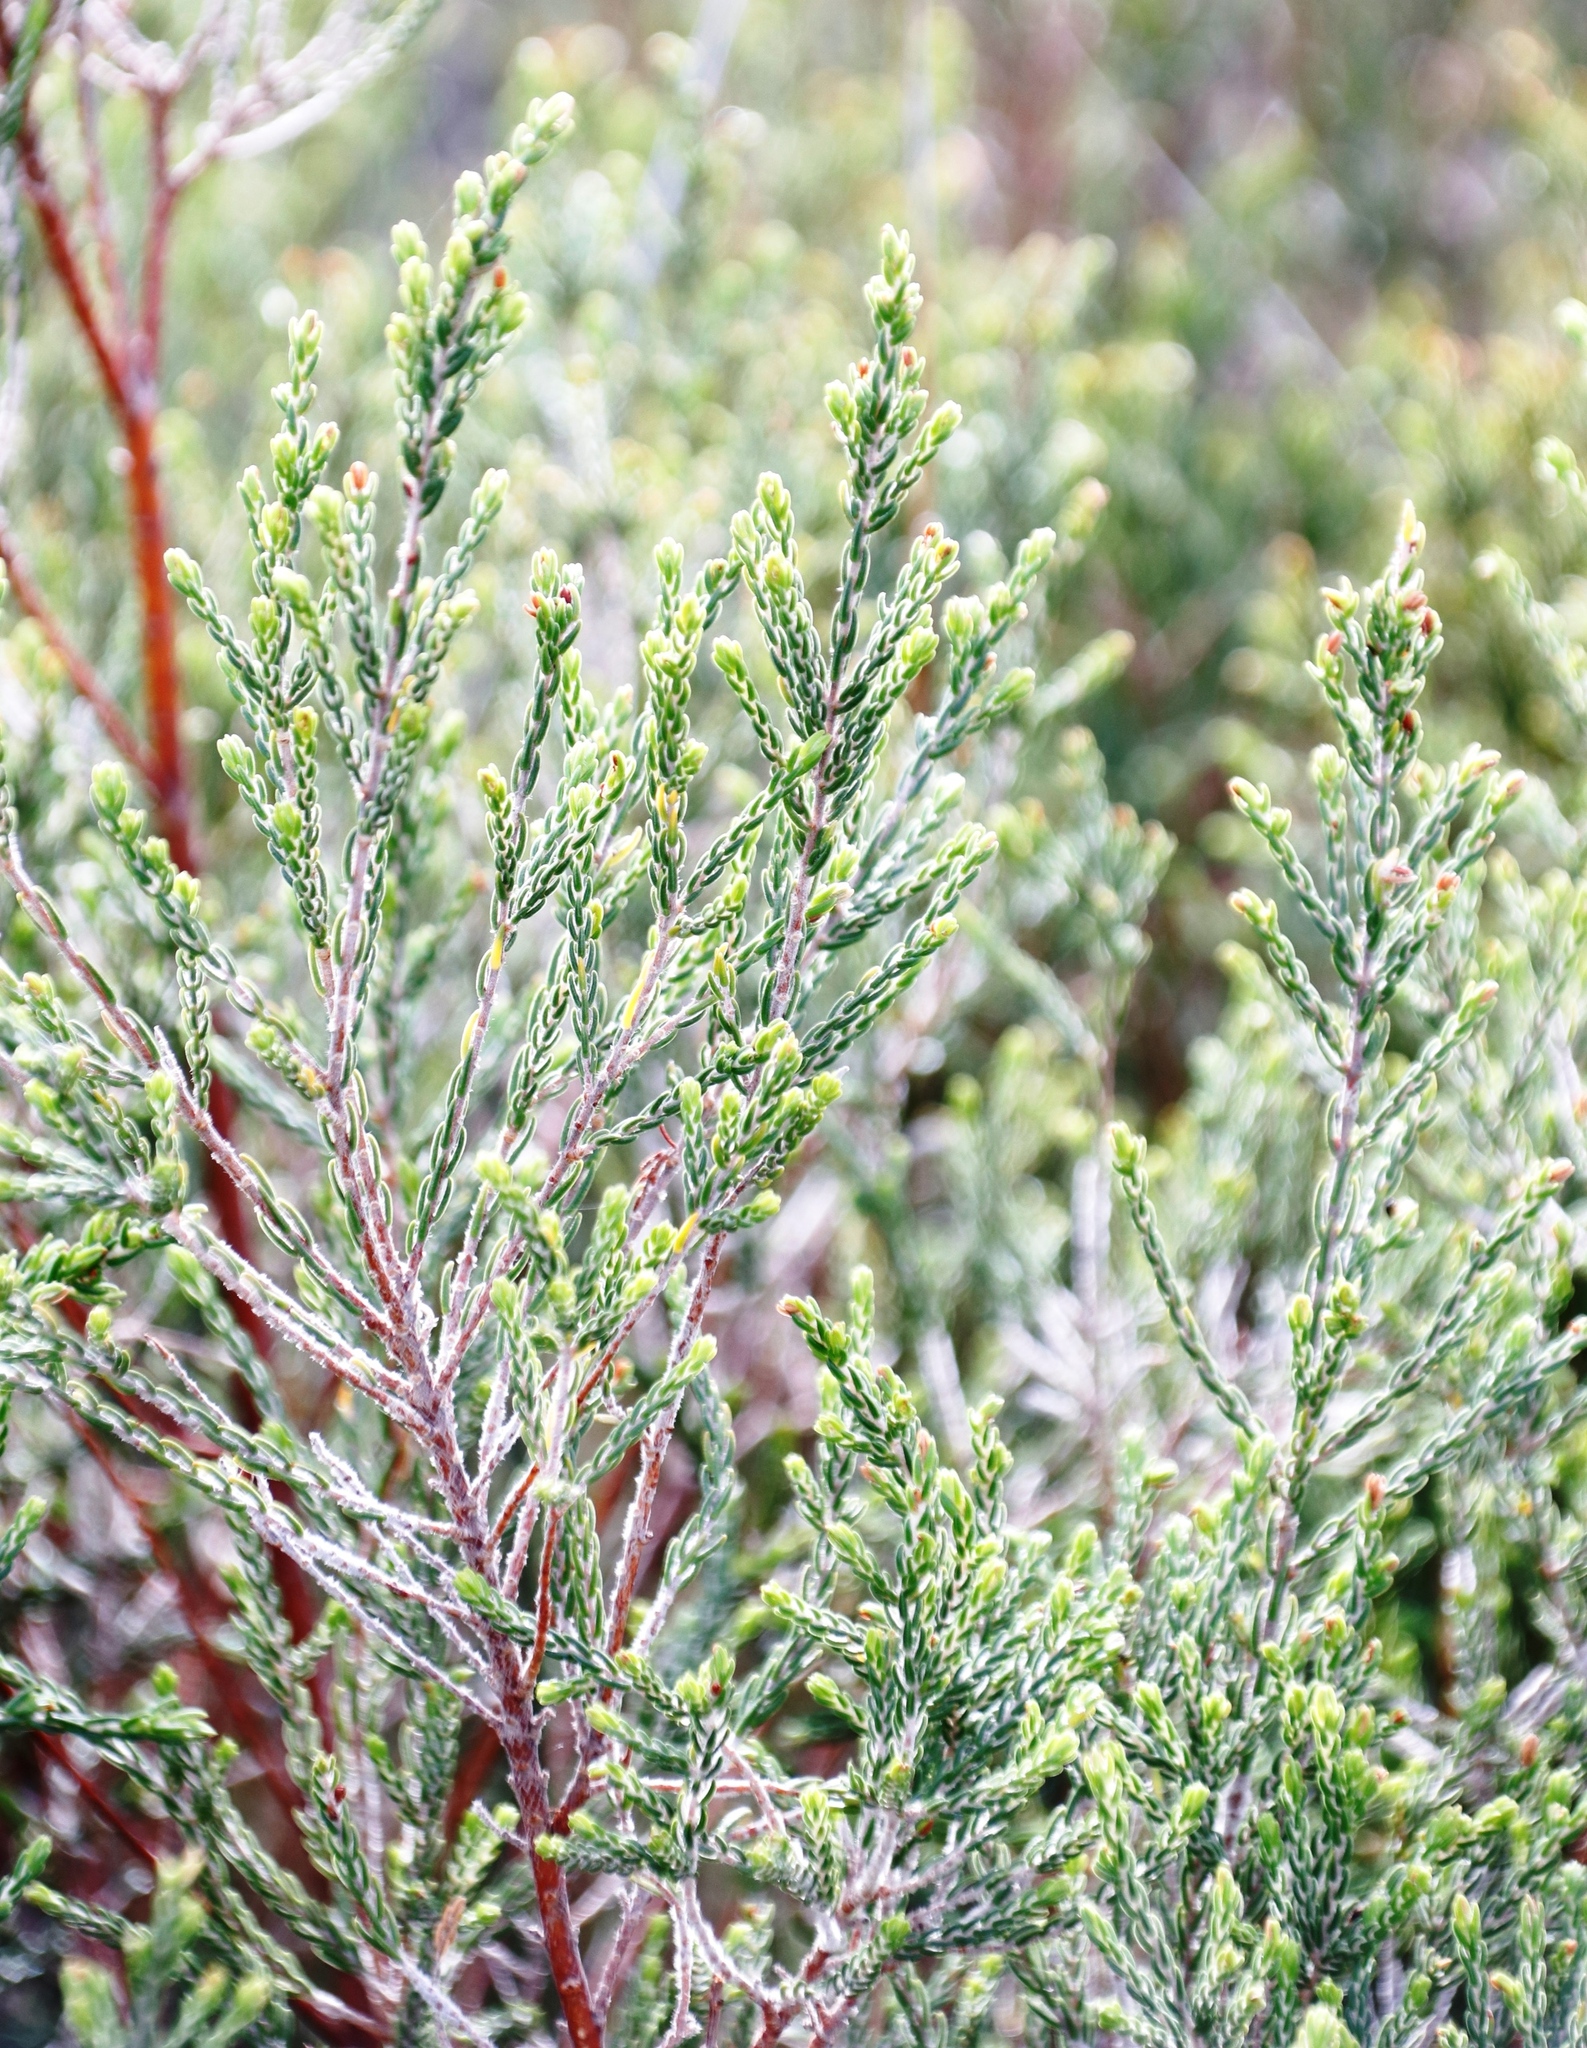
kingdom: Plantae
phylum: Tracheophyta
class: Magnoliopsida
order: Malvales
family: Thymelaeaceae
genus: Passerina
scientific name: Passerina corymbosa
